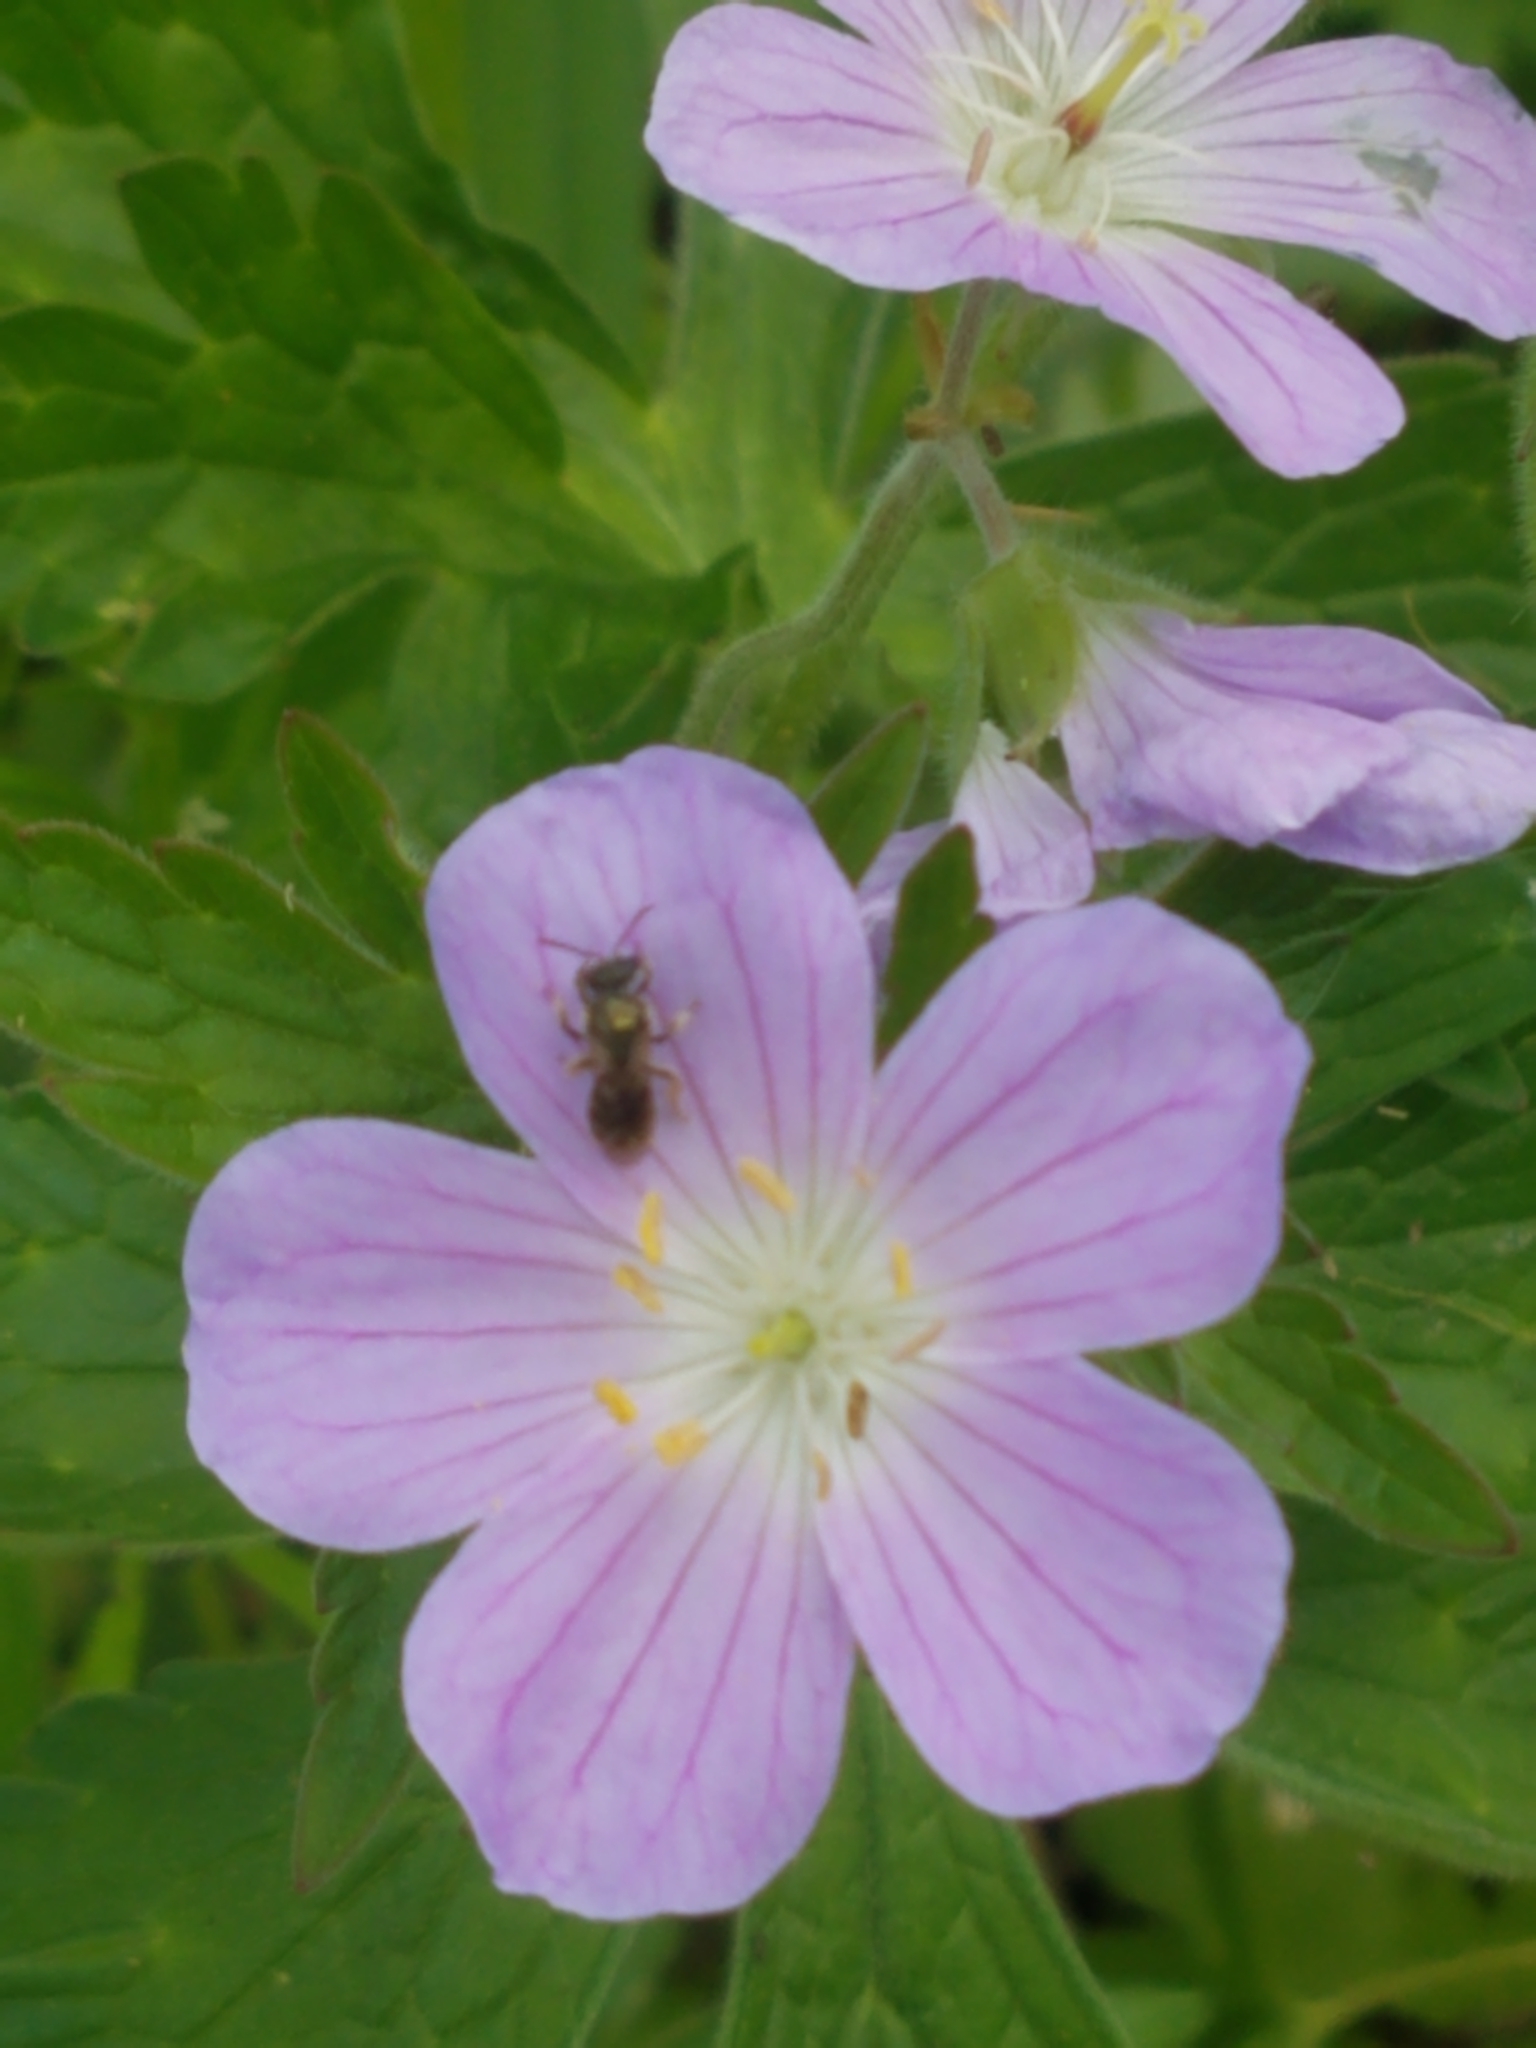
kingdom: Plantae
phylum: Tracheophyta
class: Magnoliopsida
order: Geraniales
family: Geraniaceae
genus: Geranium
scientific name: Geranium maculatum
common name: Spotted geranium
